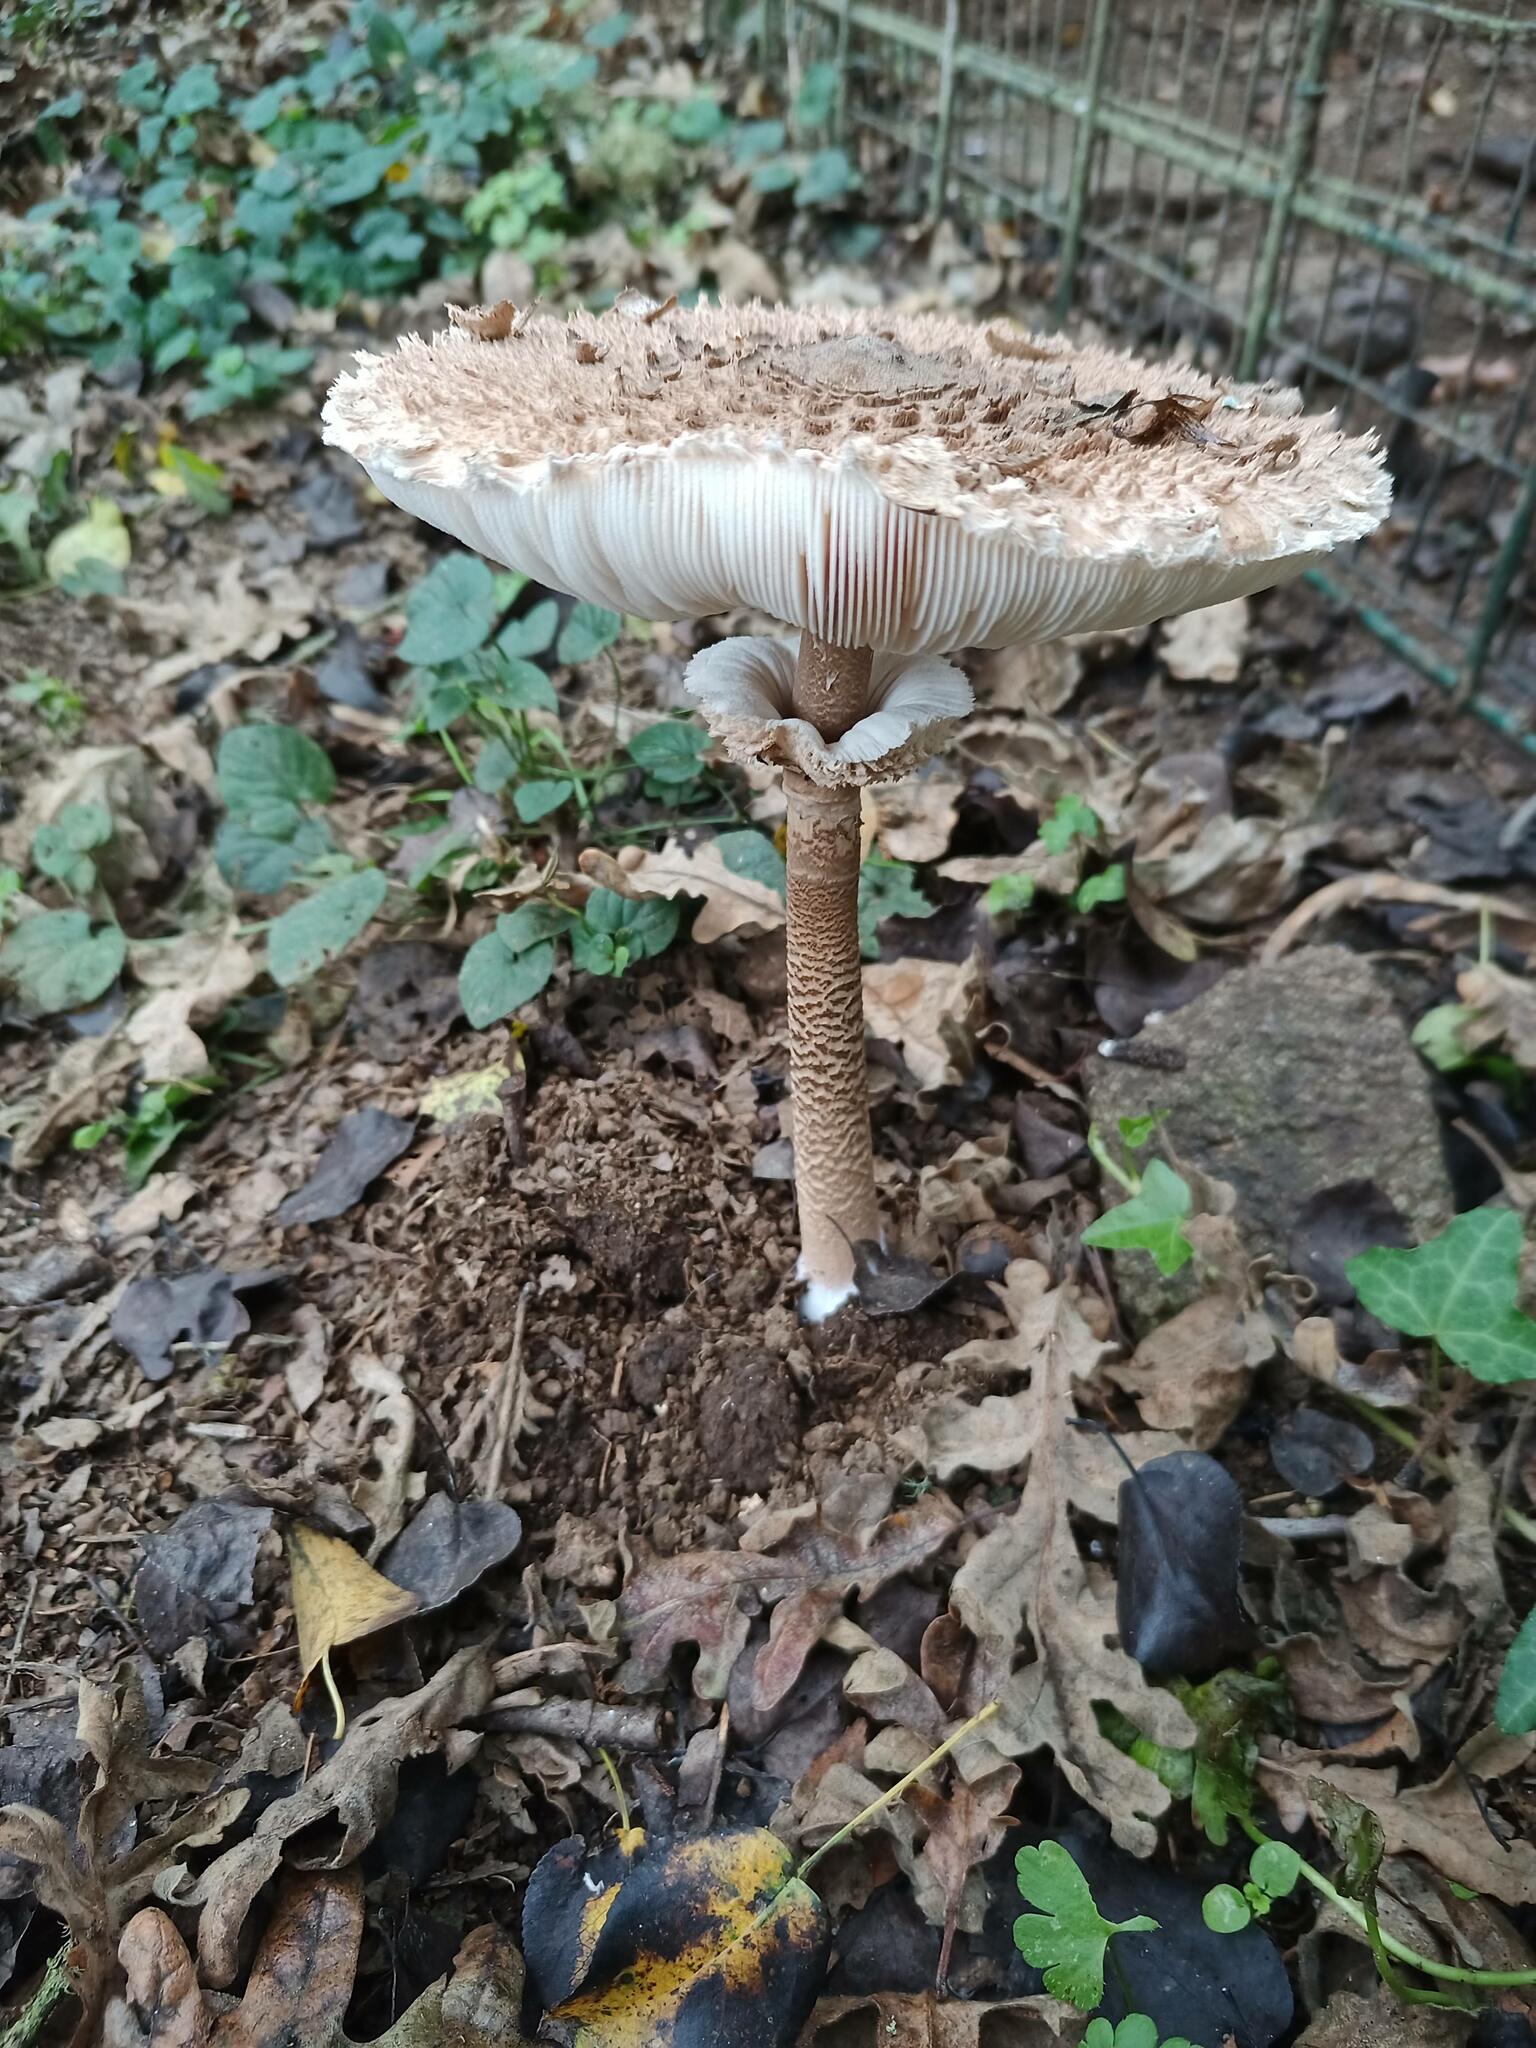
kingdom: Fungi
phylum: Basidiomycota
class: Agaricomycetes
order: Agaricales
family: Agaricaceae
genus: Macrolepiota
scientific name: Macrolepiota procera
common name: Parasol
